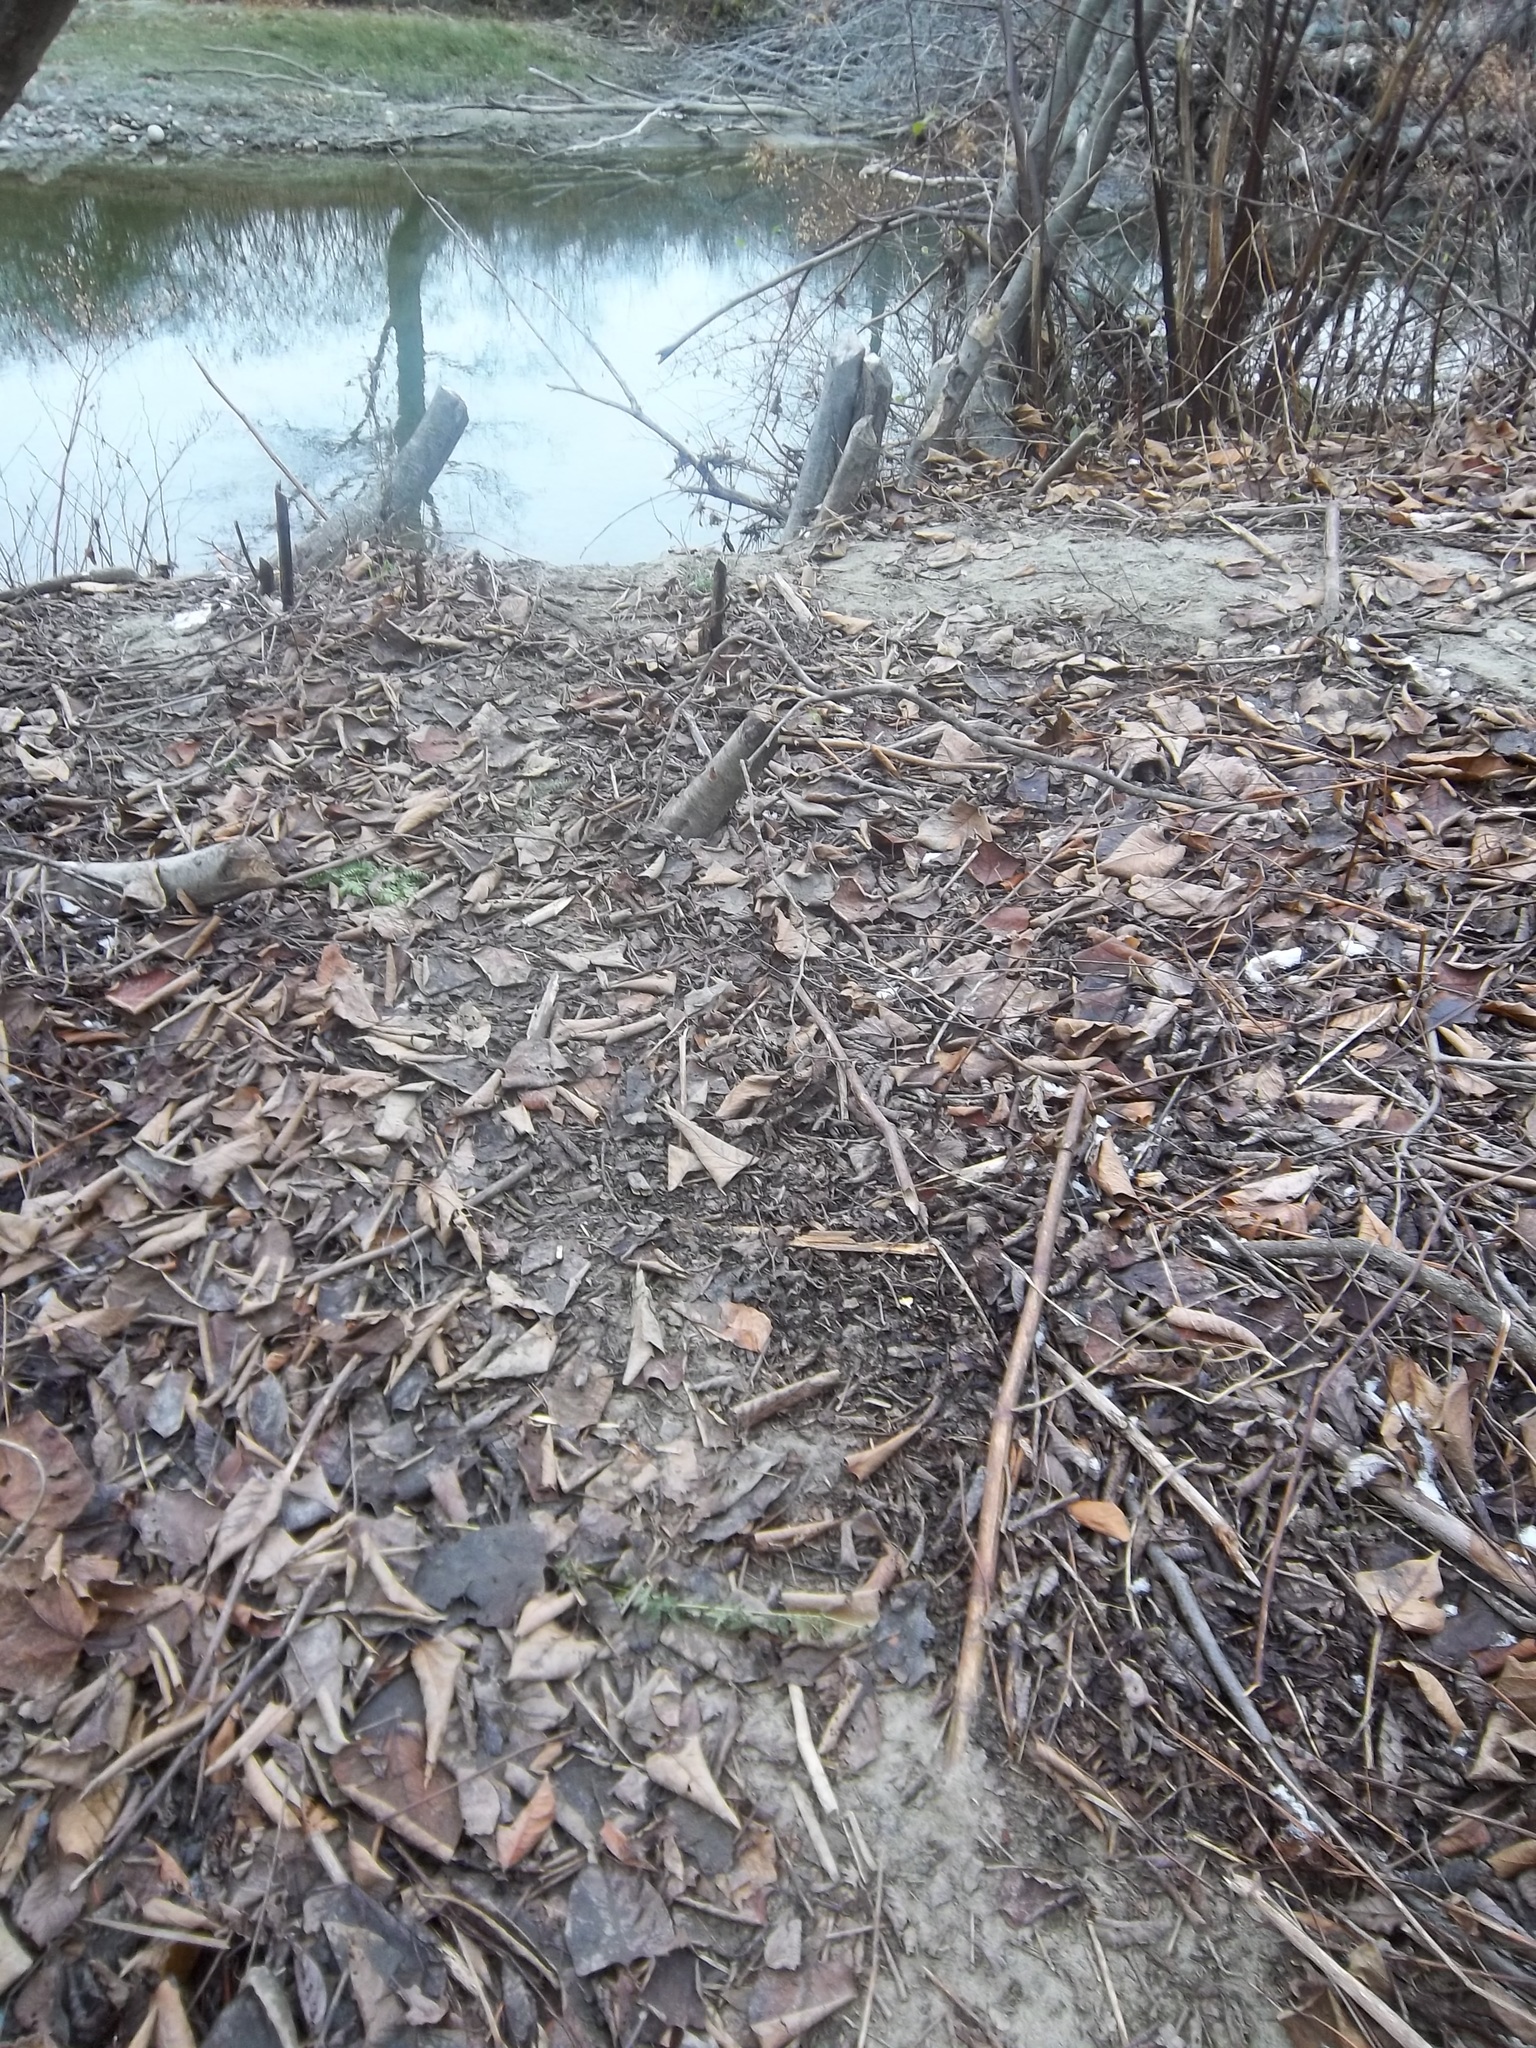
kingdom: Animalia
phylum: Chordata
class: Mammalia
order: Rodentia
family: Castoridae
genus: Castor
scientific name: Castor canadensis
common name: American beaver
